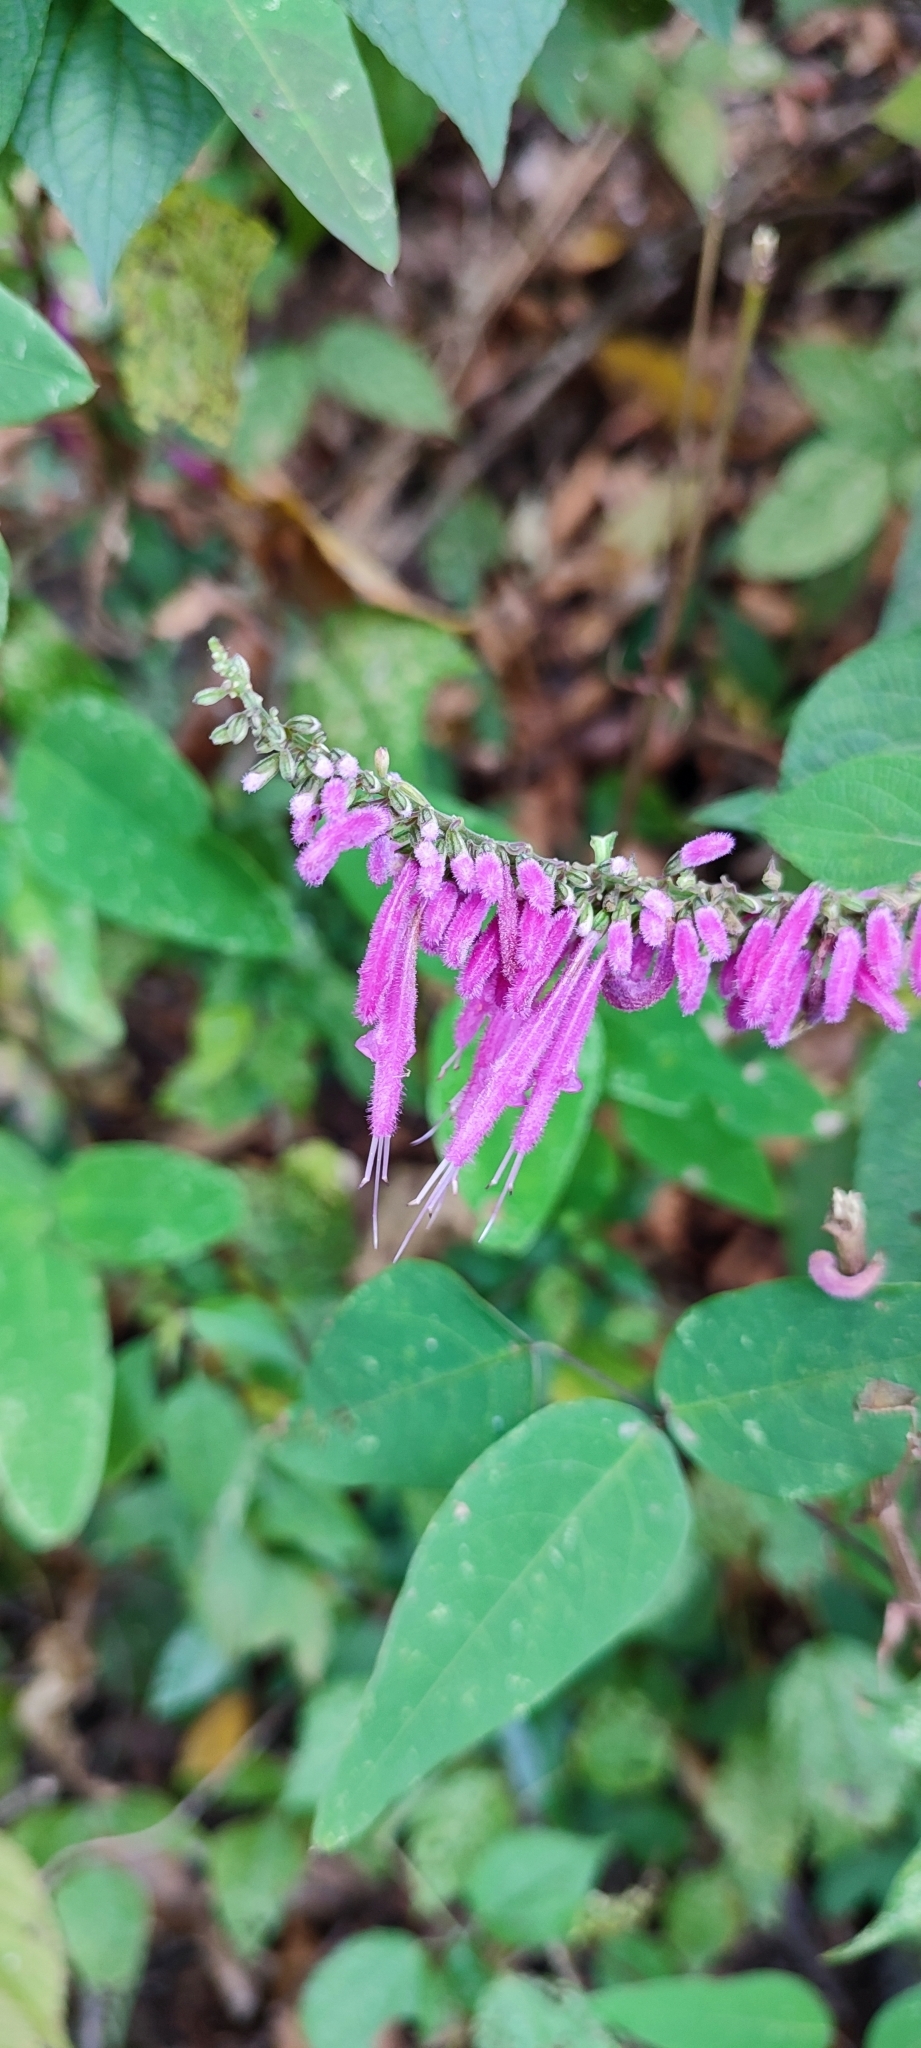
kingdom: Plantae
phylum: Tracheophyta
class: Magnoliopsida
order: Lamiales
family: Lamiaceae
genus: Salvia
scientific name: Salvia iodantha
